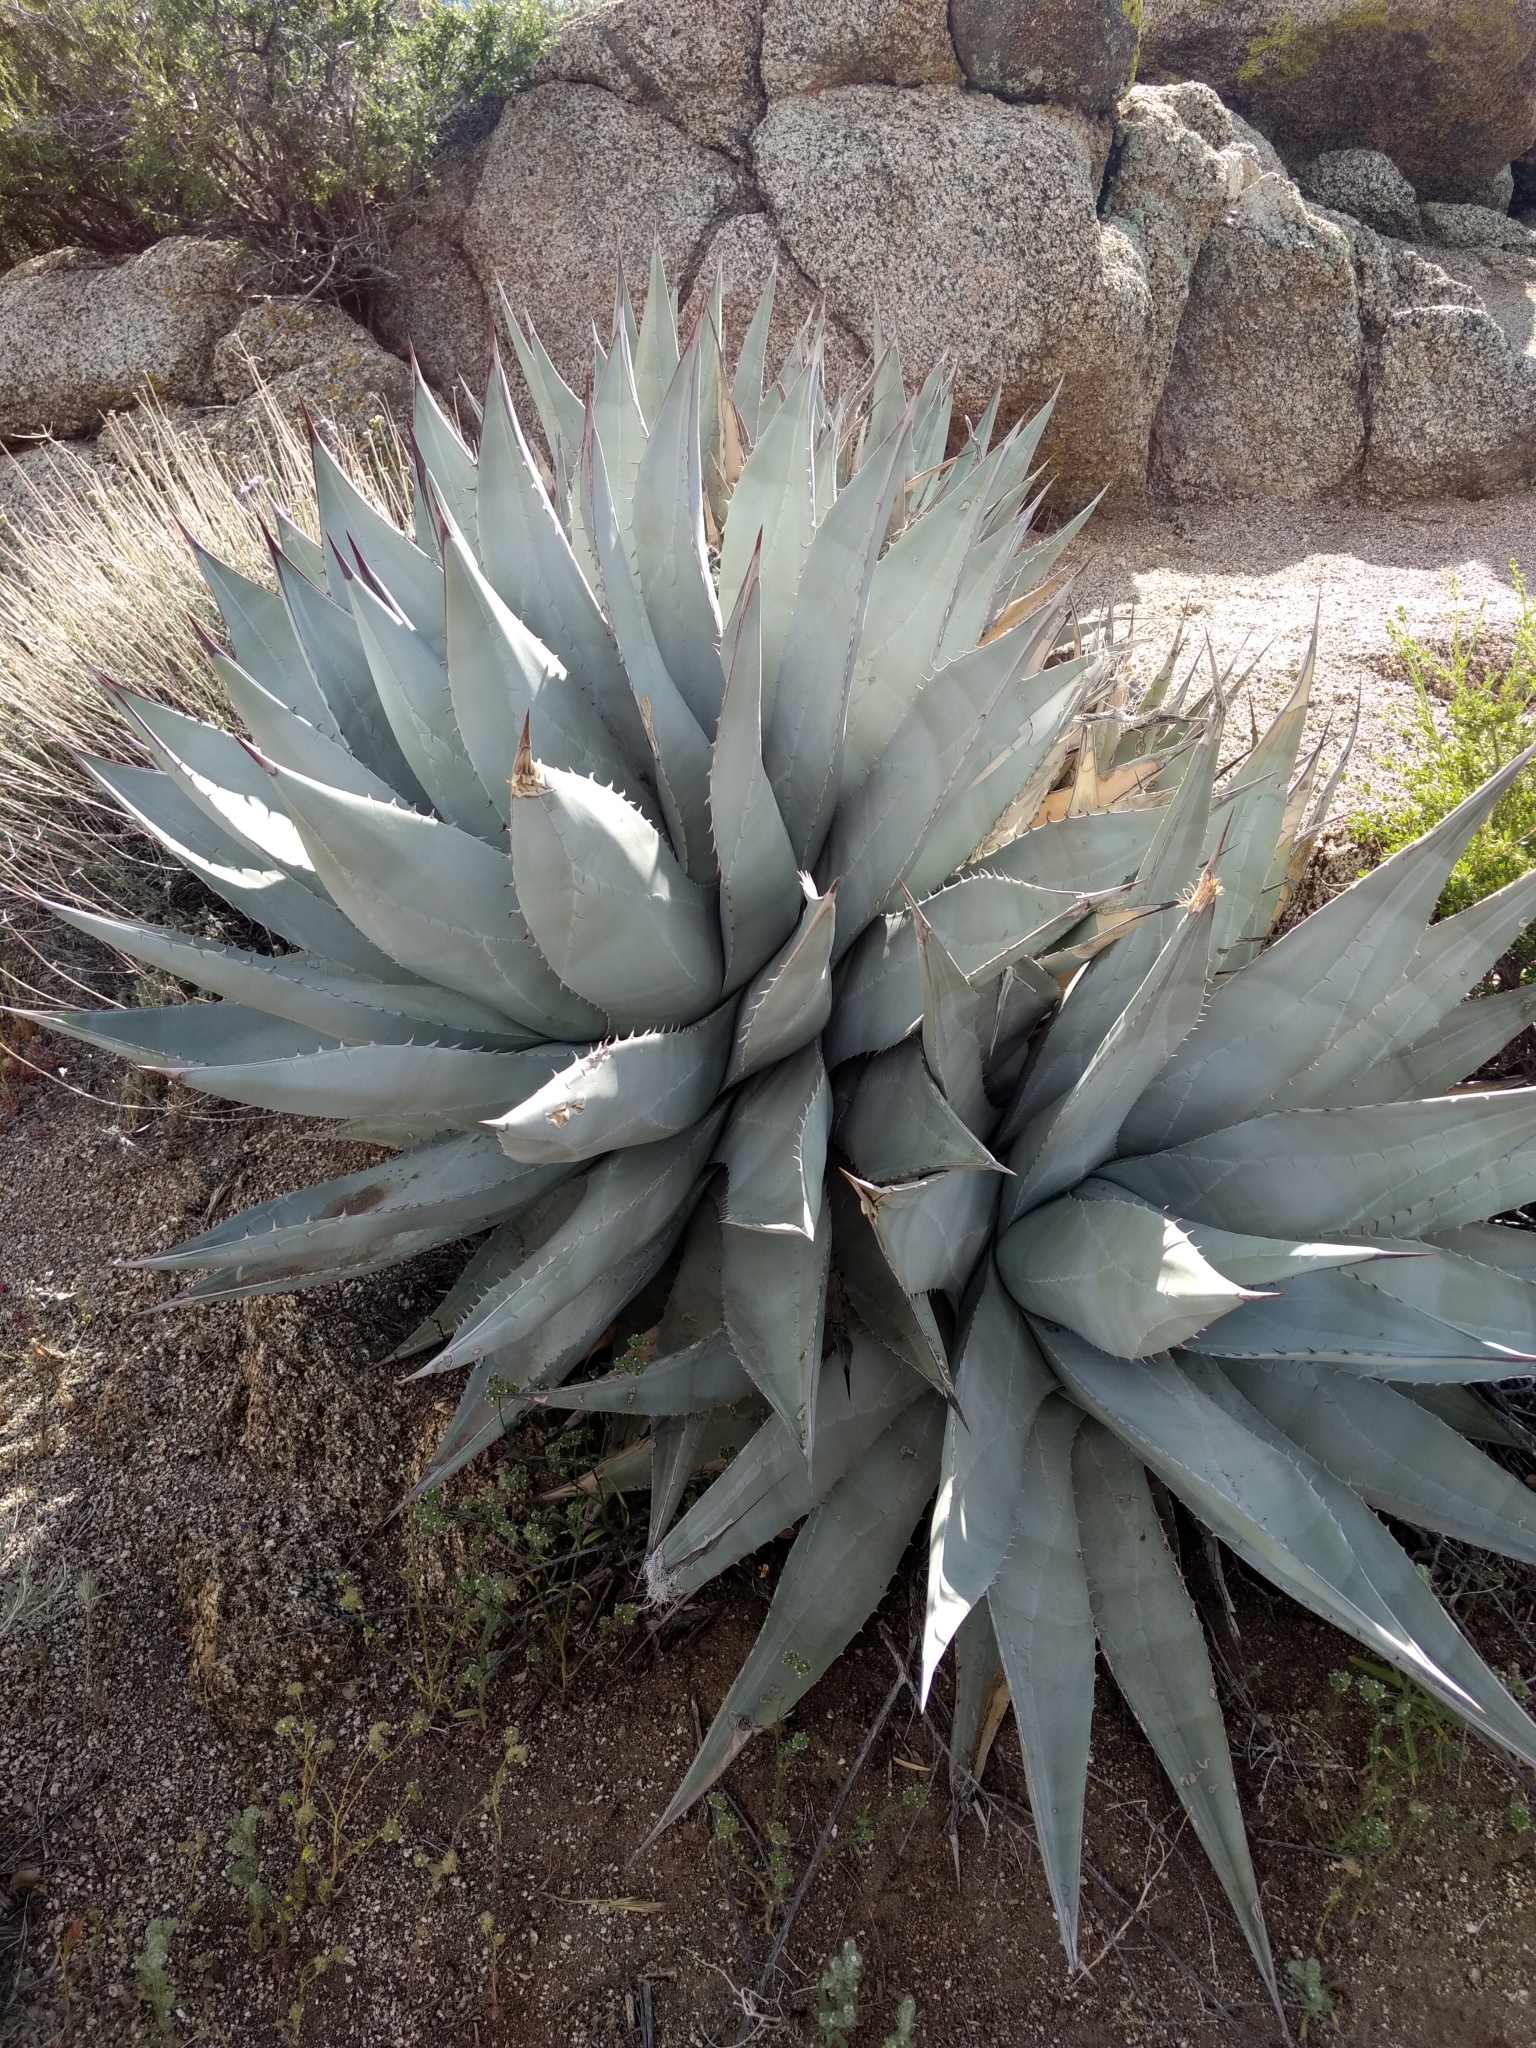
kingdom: Plantae
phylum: Tracheophyta
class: Liliopsida
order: Asparagales
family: Asparagaceae
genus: Agave
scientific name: Agave deserti
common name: Desert agave
